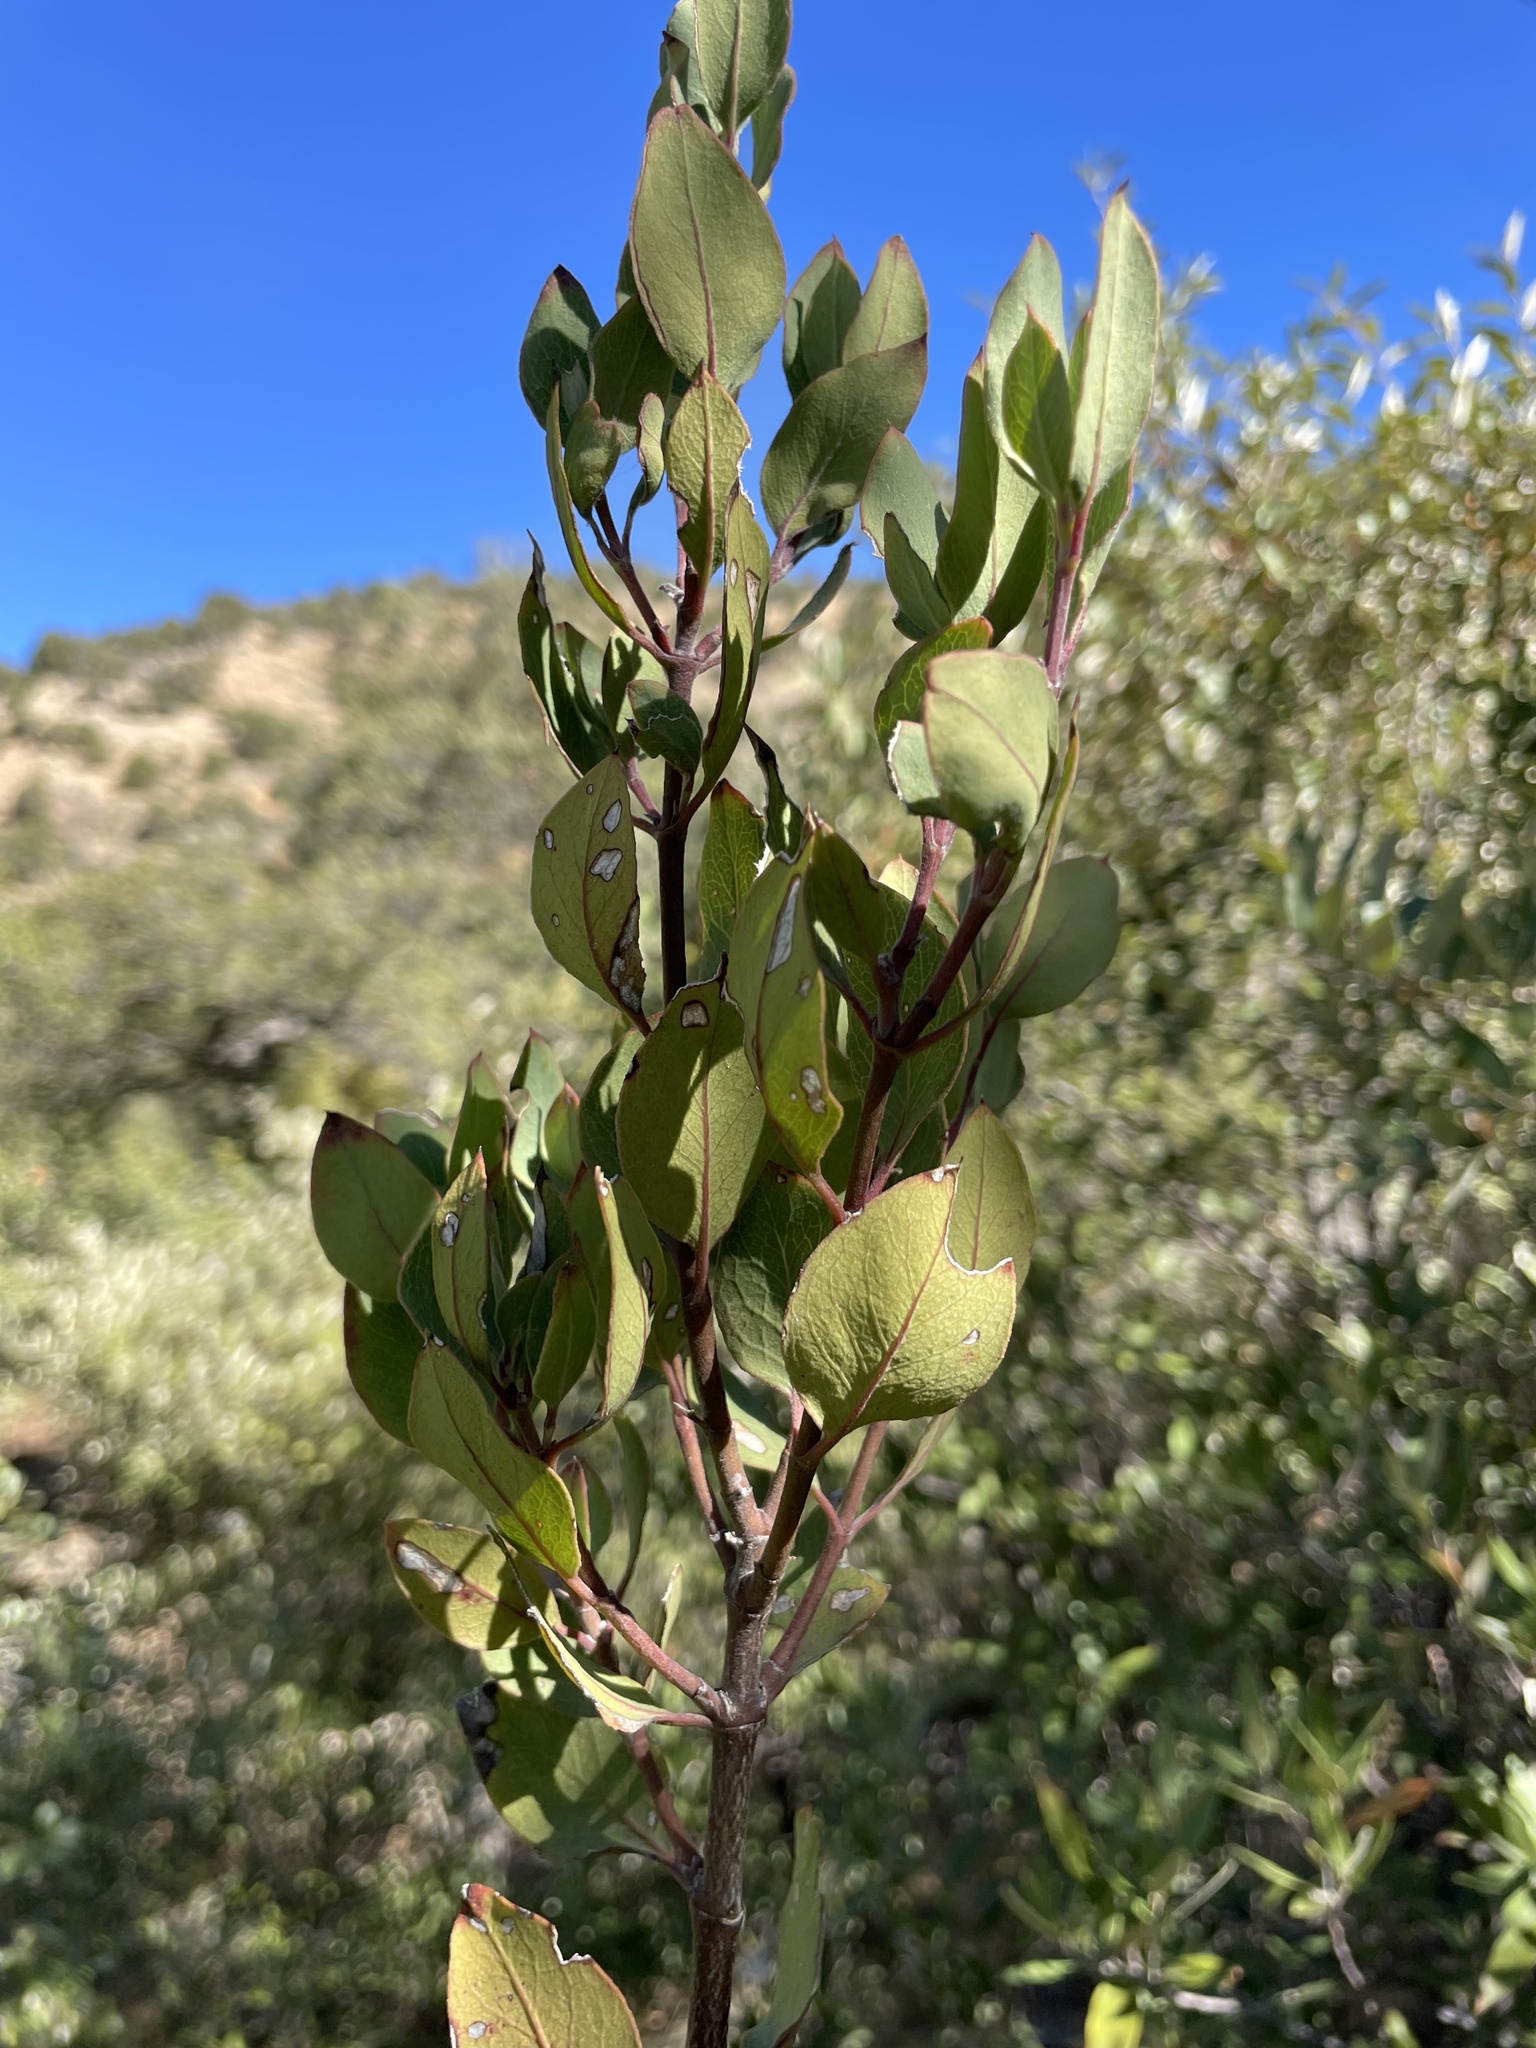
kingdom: Plantae
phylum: Tracheophyta
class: Magnoliopsida
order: Garryales
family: Garryaceae
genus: Garrya
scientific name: Garrya wrightii
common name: Wright's silktassel
